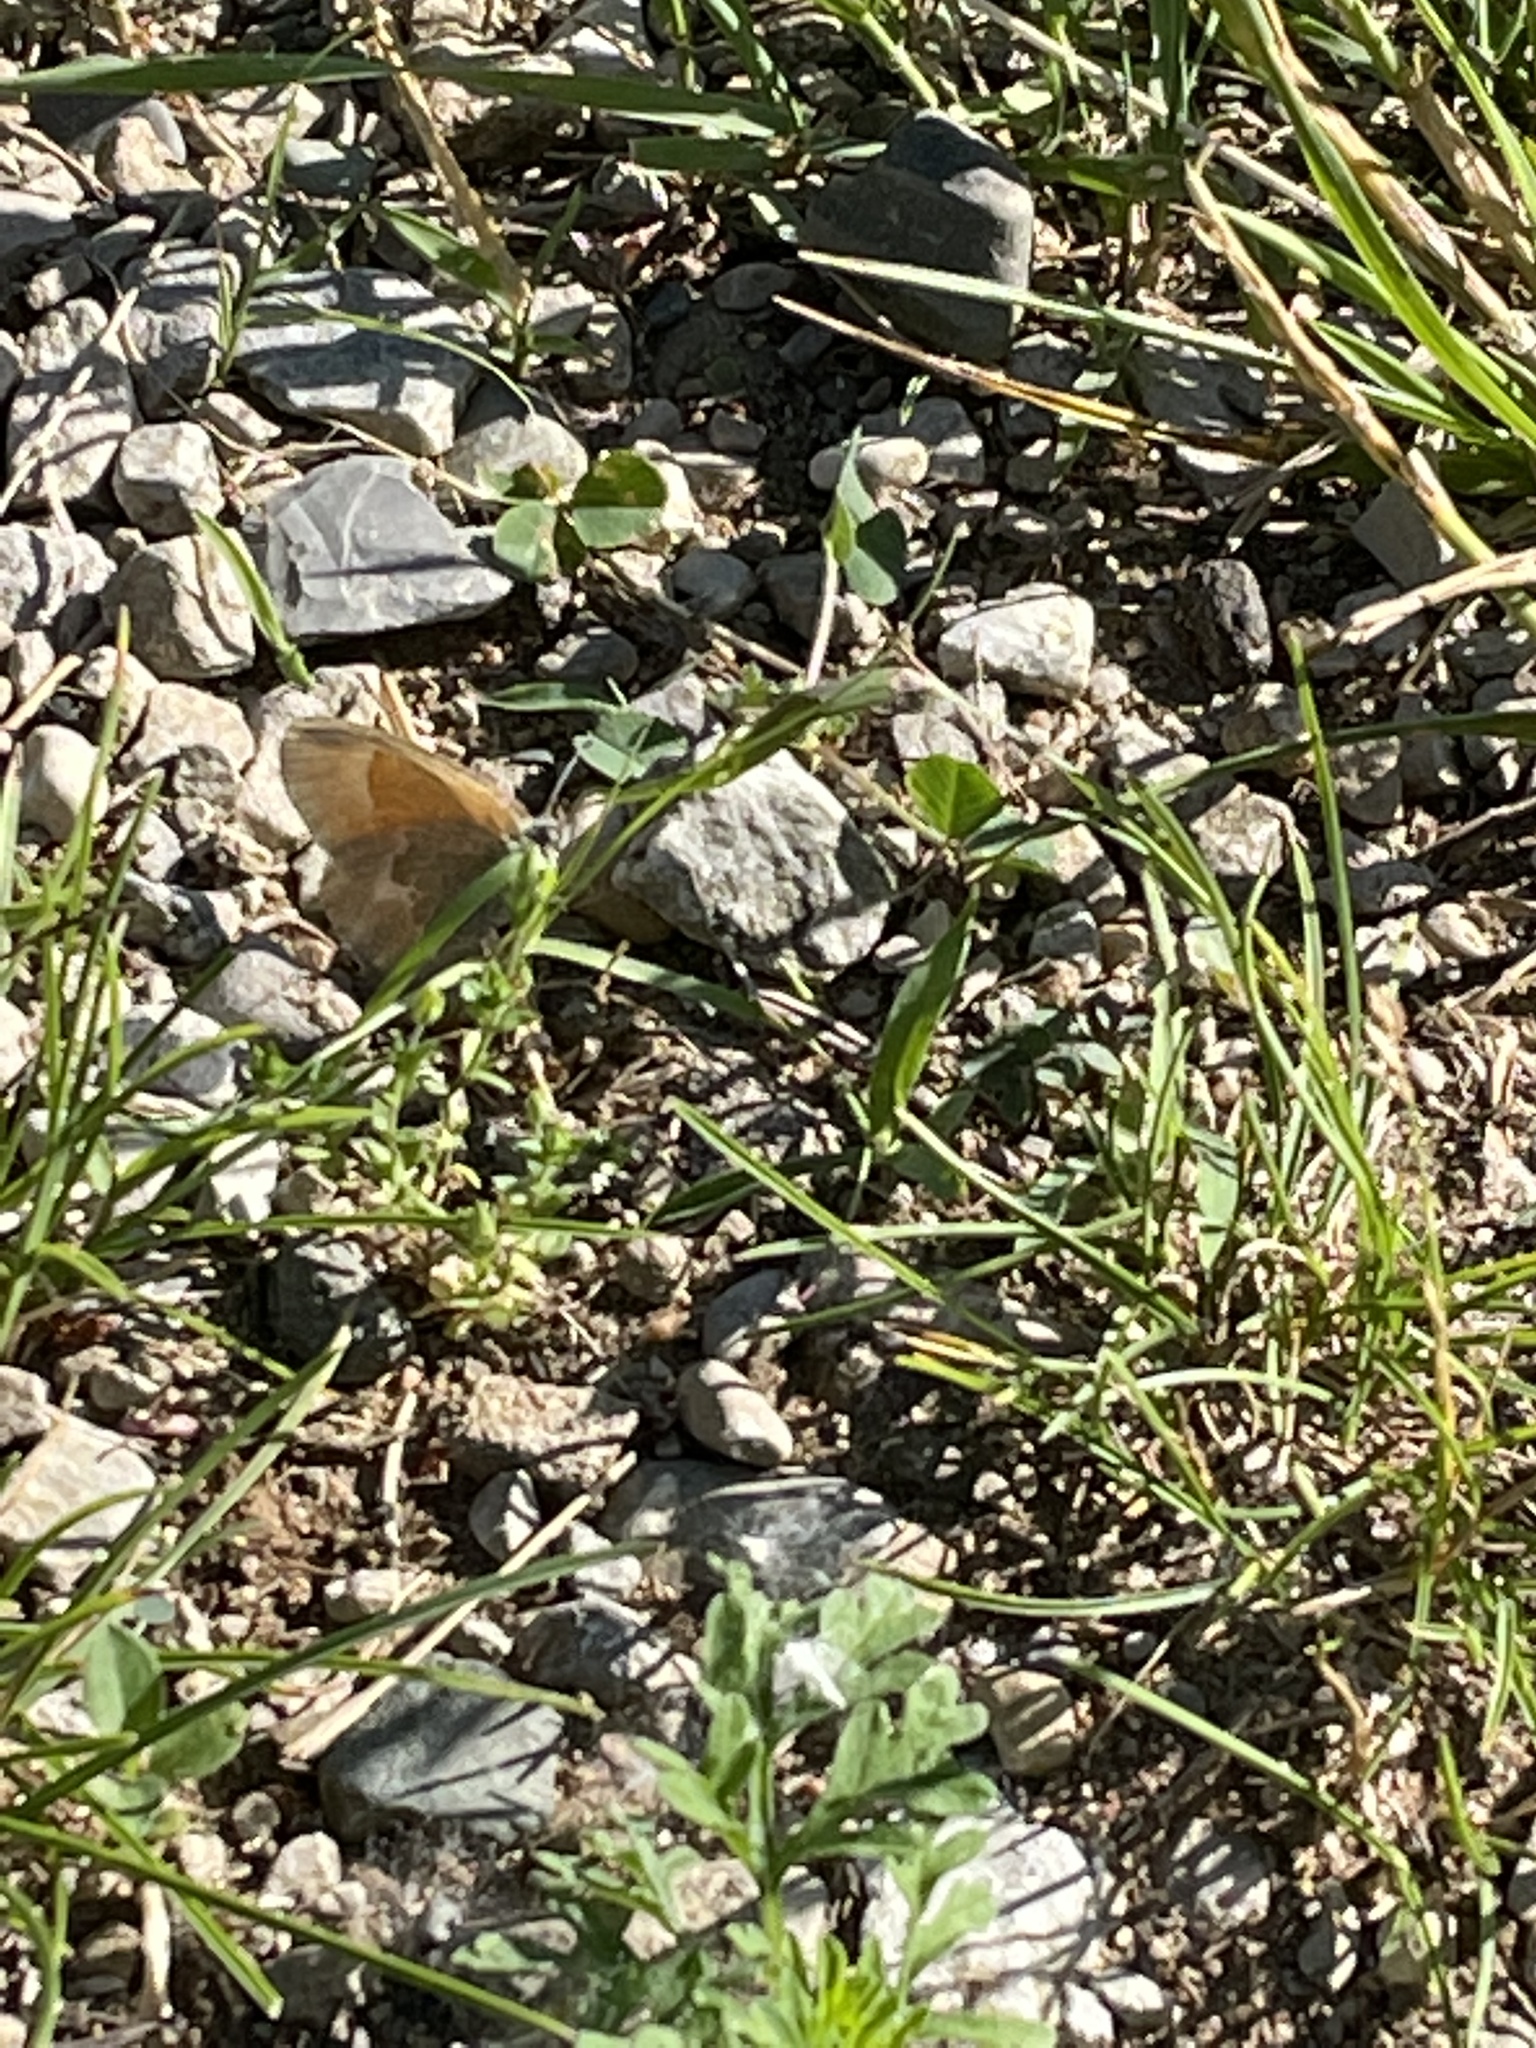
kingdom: Animalia
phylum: Arthropoda
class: Insecta
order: Lepidoptera
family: Nymphalidae
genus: Coenonympha
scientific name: Coenonympha california
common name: Common ringlet
